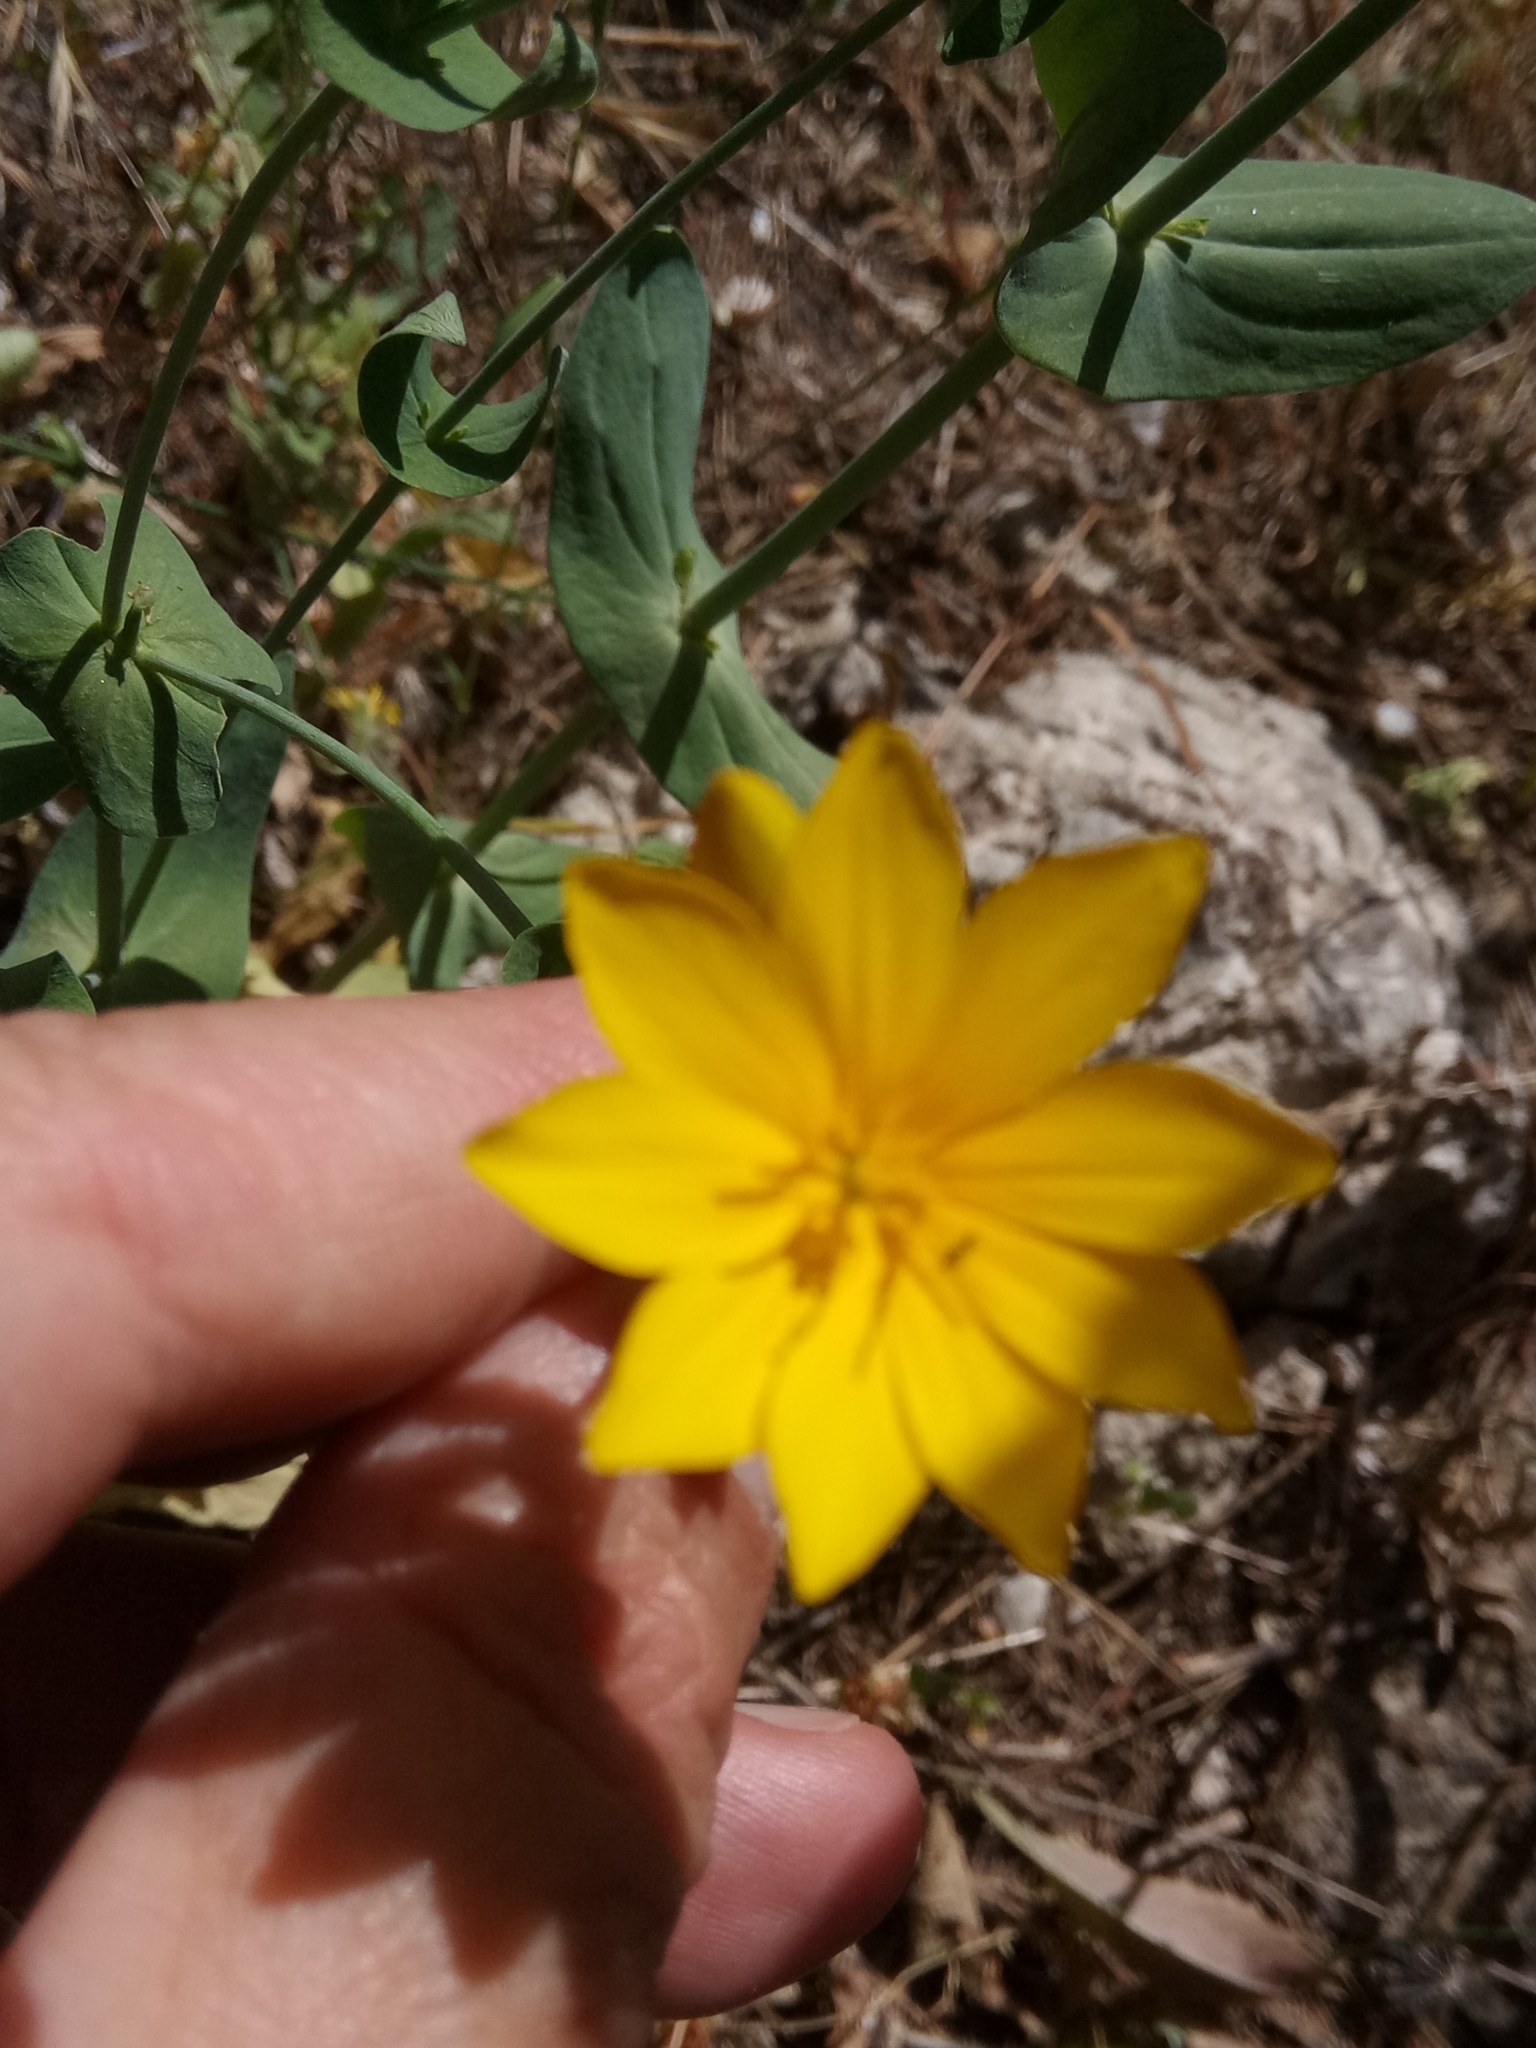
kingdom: Plantae
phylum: Tracheophyta
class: Magnoliopsida
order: Gentianales
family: Gentianaceae
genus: Blackstonia
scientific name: Blackstonia grandiflora
